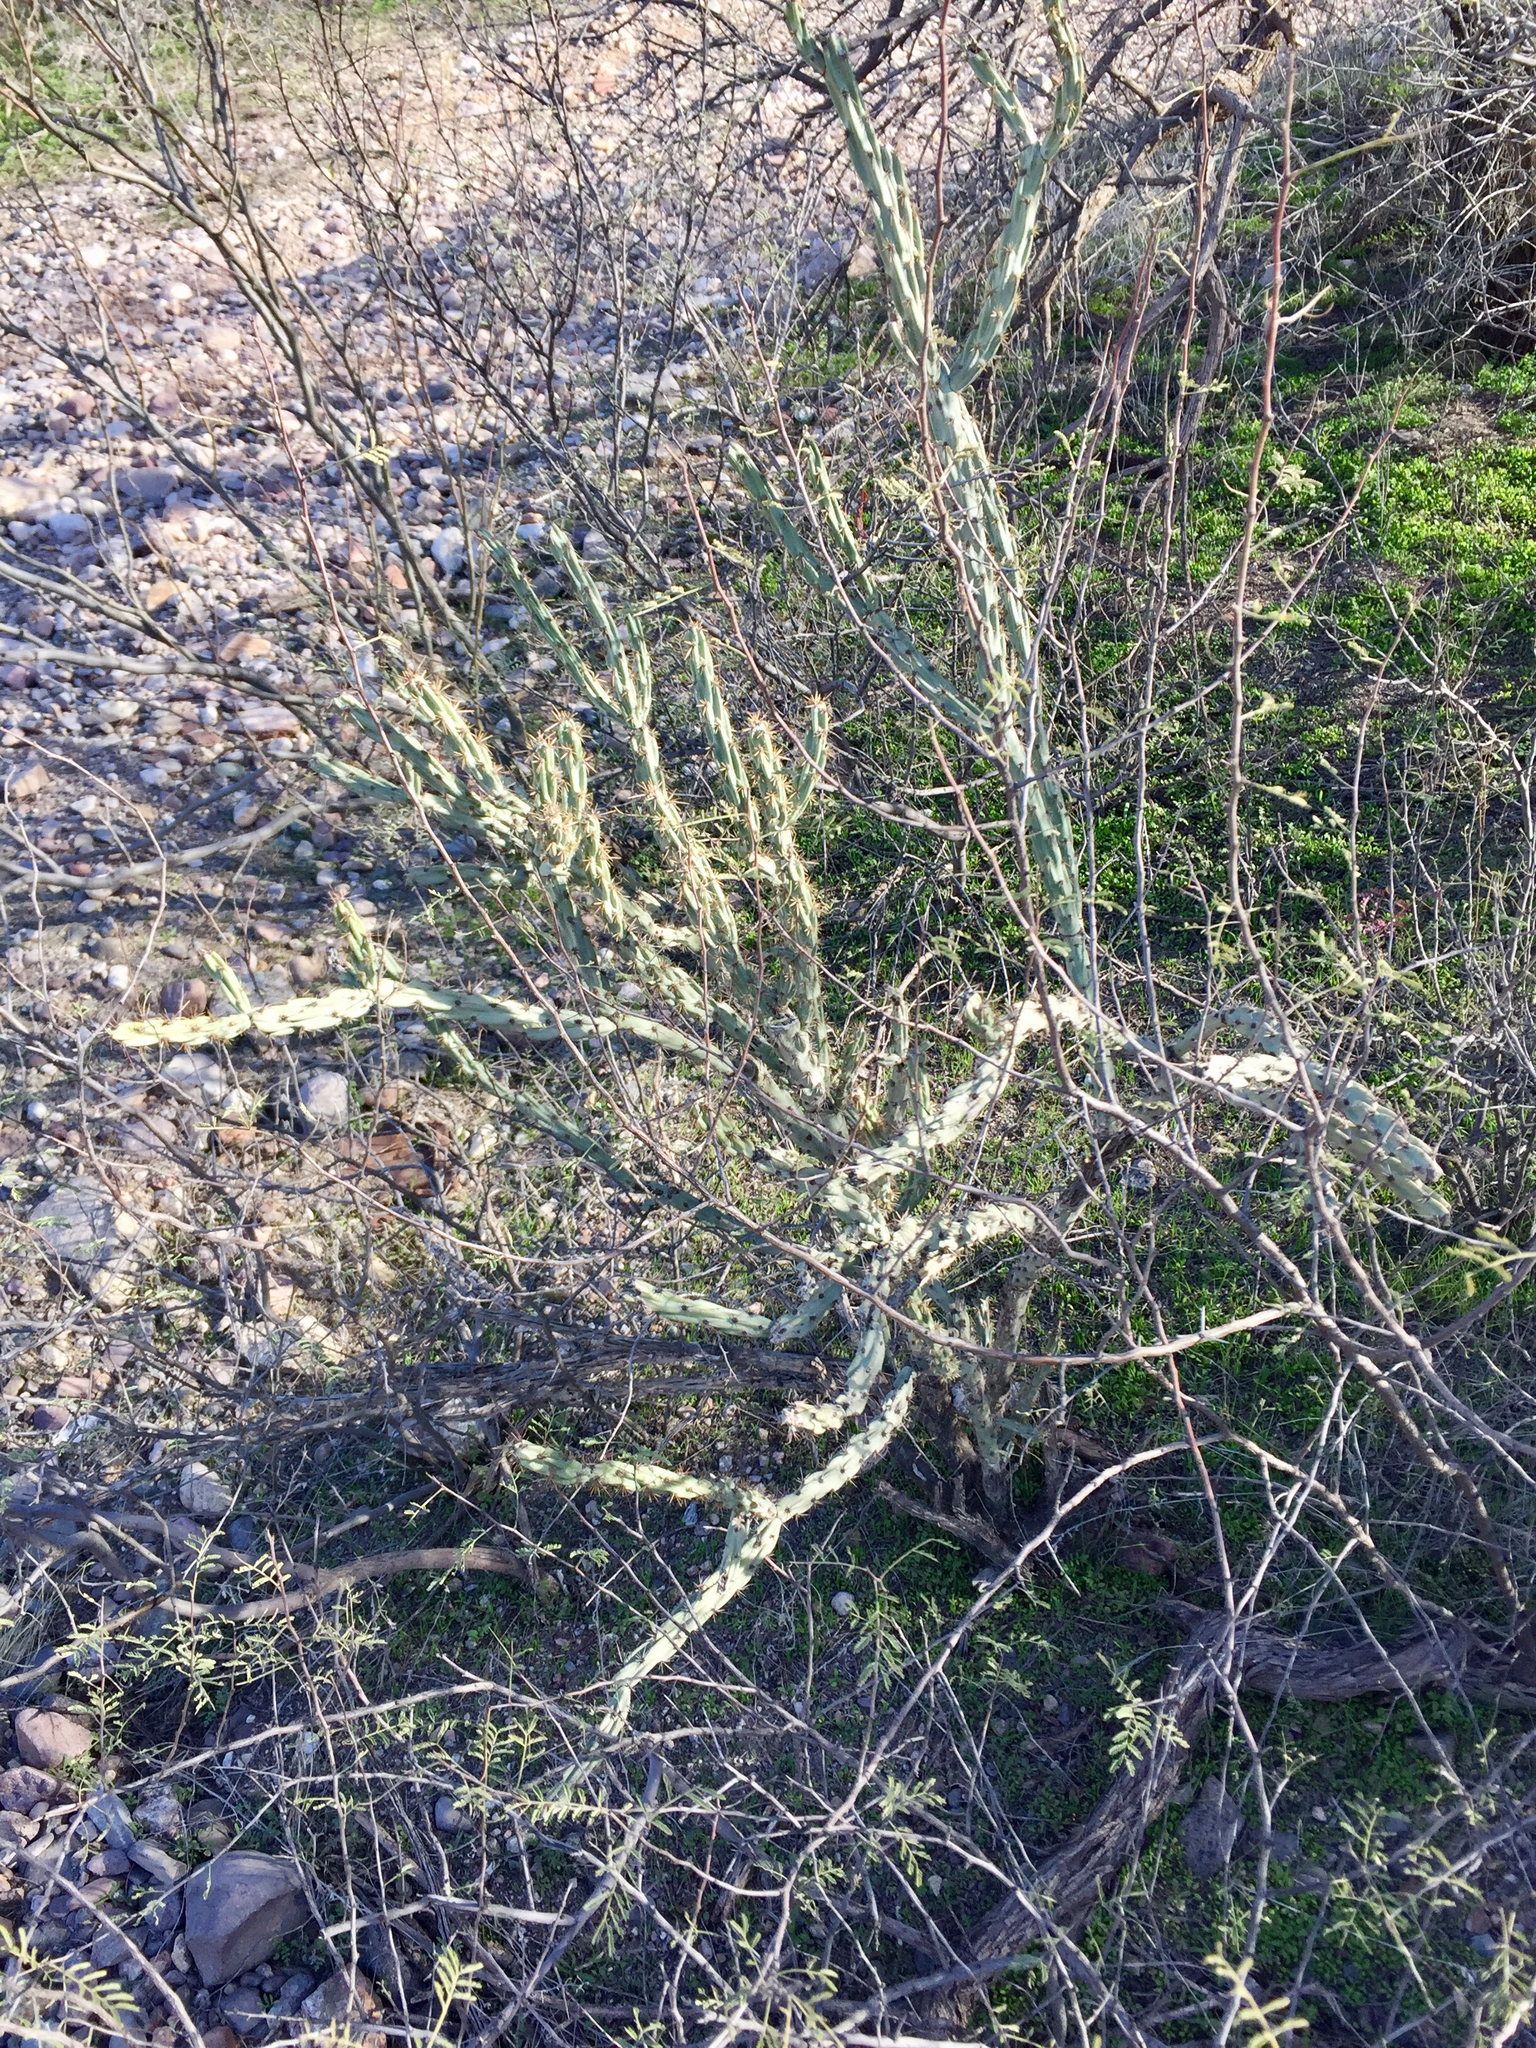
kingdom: Plantae
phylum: Tracheophyta
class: Magnoliopsida
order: Caryophyllales
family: Cactaceae
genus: Cylindropuntia
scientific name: Cylindropuntia acanthocarpa
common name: Buckhorn cholla
